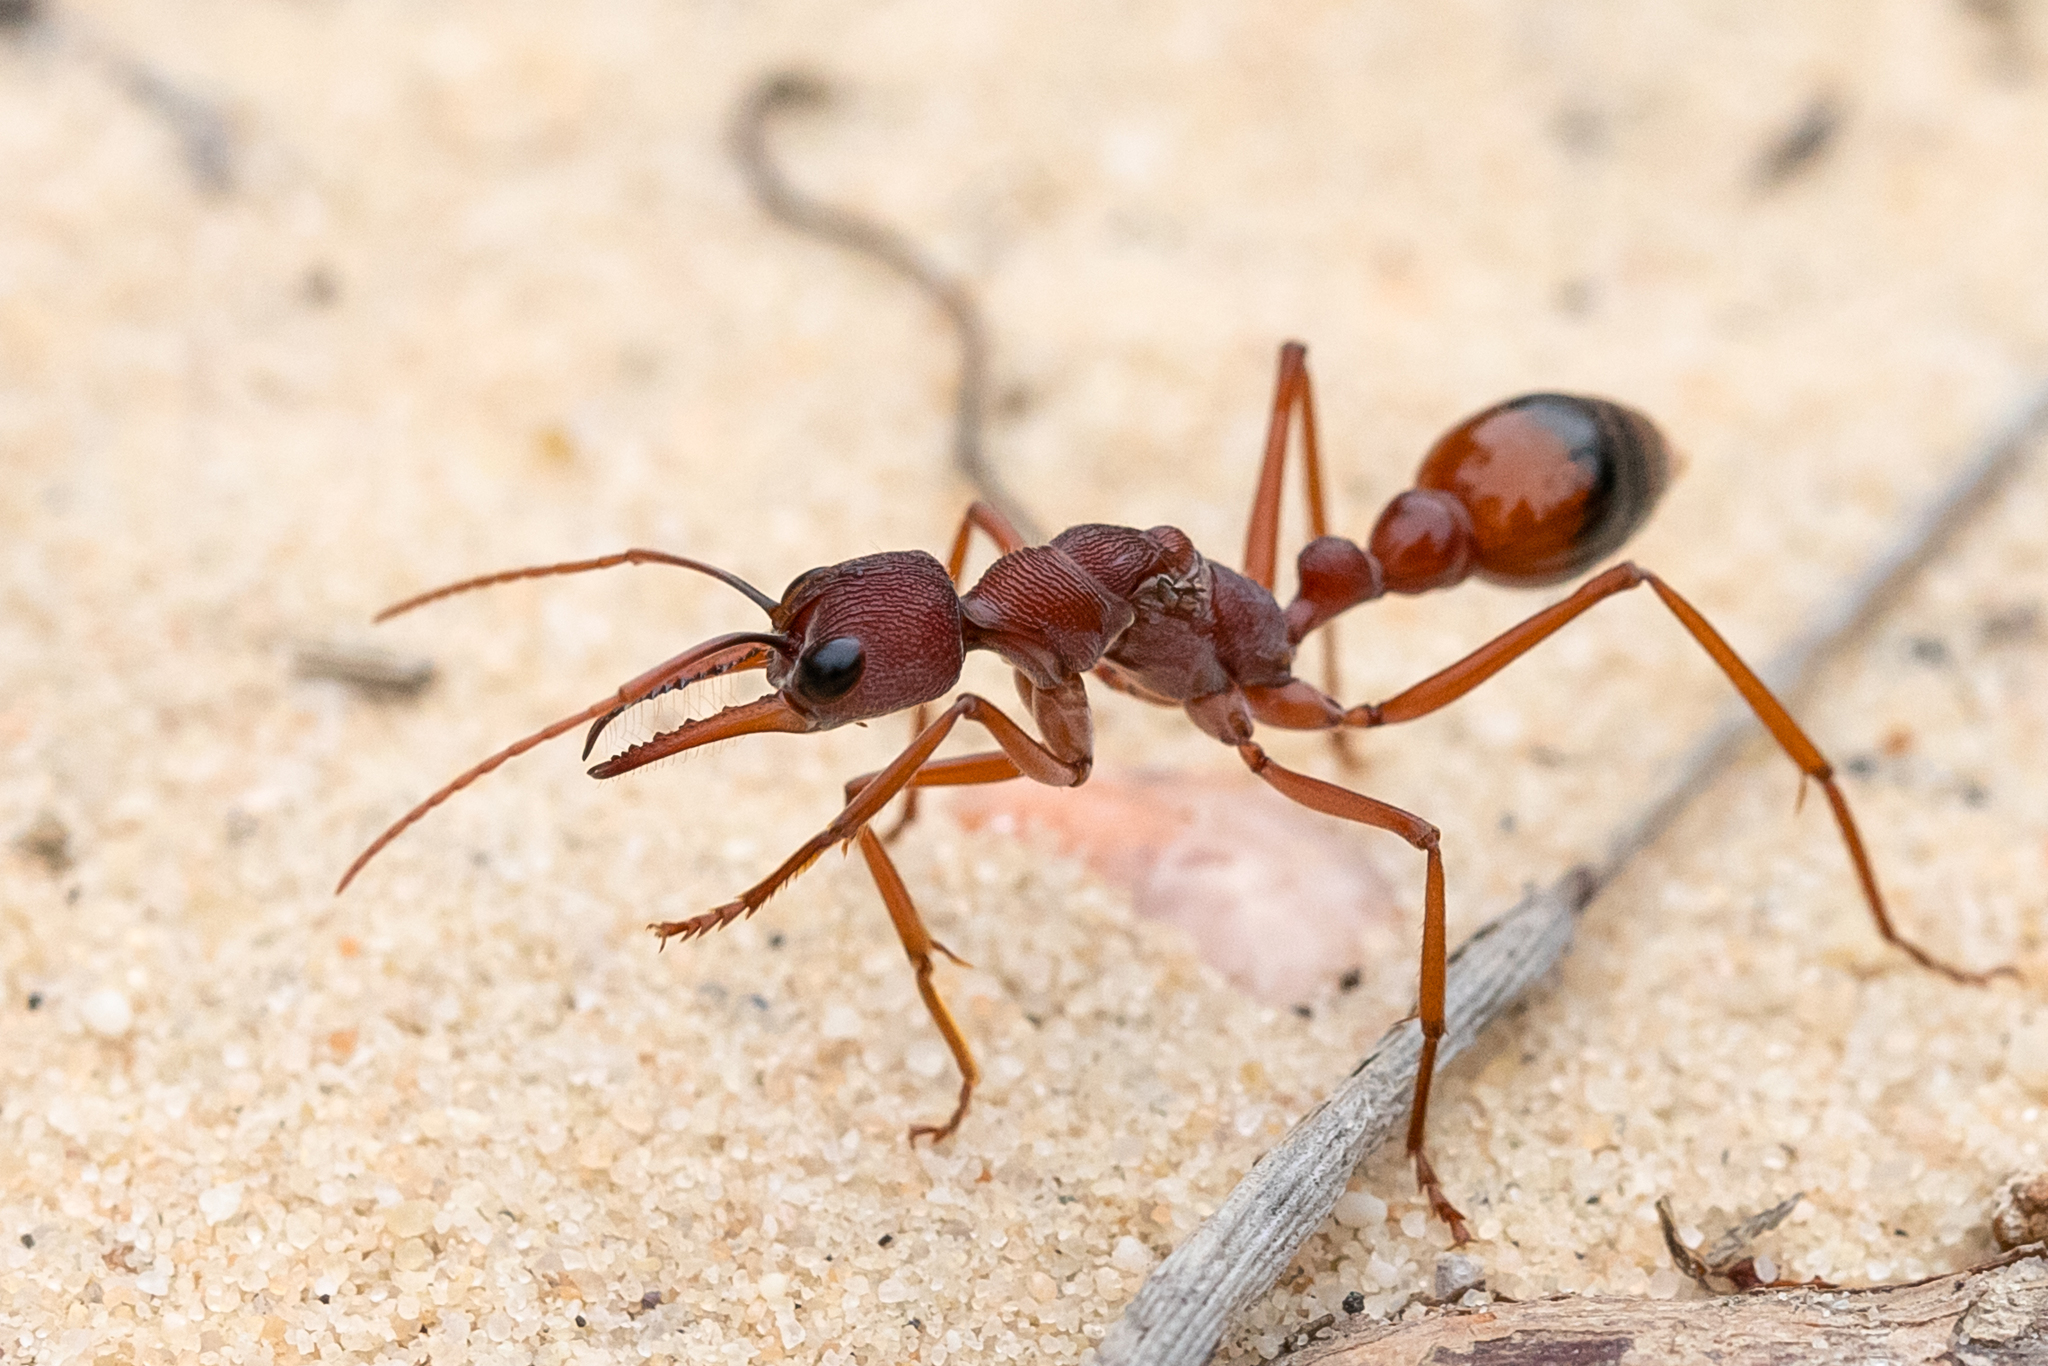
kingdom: Animalia
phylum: Arthropoda
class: Insecta
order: Hymenoptera
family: Formicidae
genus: Myrmecia
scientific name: Myrmecia nigriscapa
